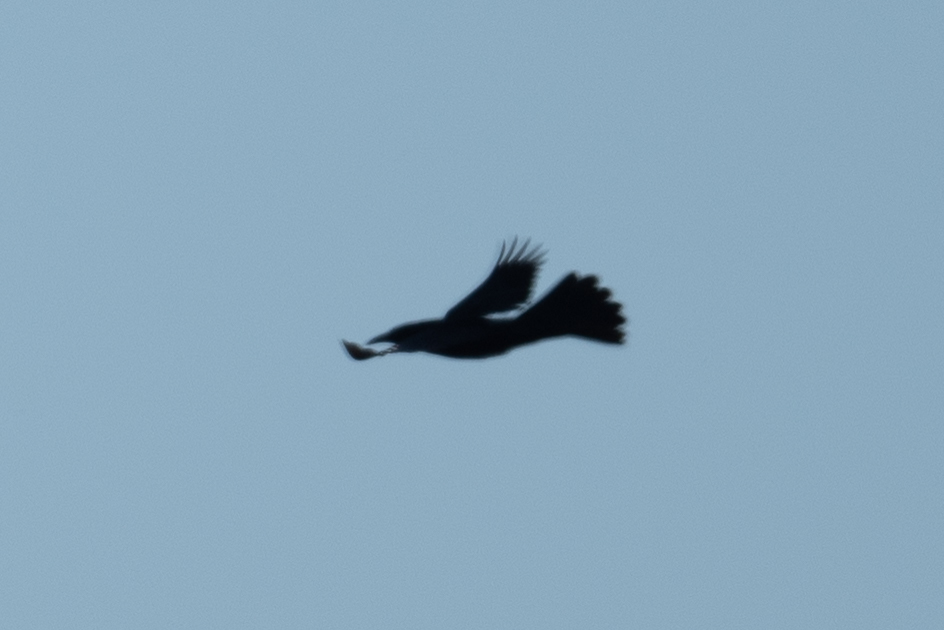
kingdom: Animalia
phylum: Chordata
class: Aves
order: Passeriformes
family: Icteridae
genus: Quiscalus
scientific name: Quiscalus mexicanus
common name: Great-tailed grackle
